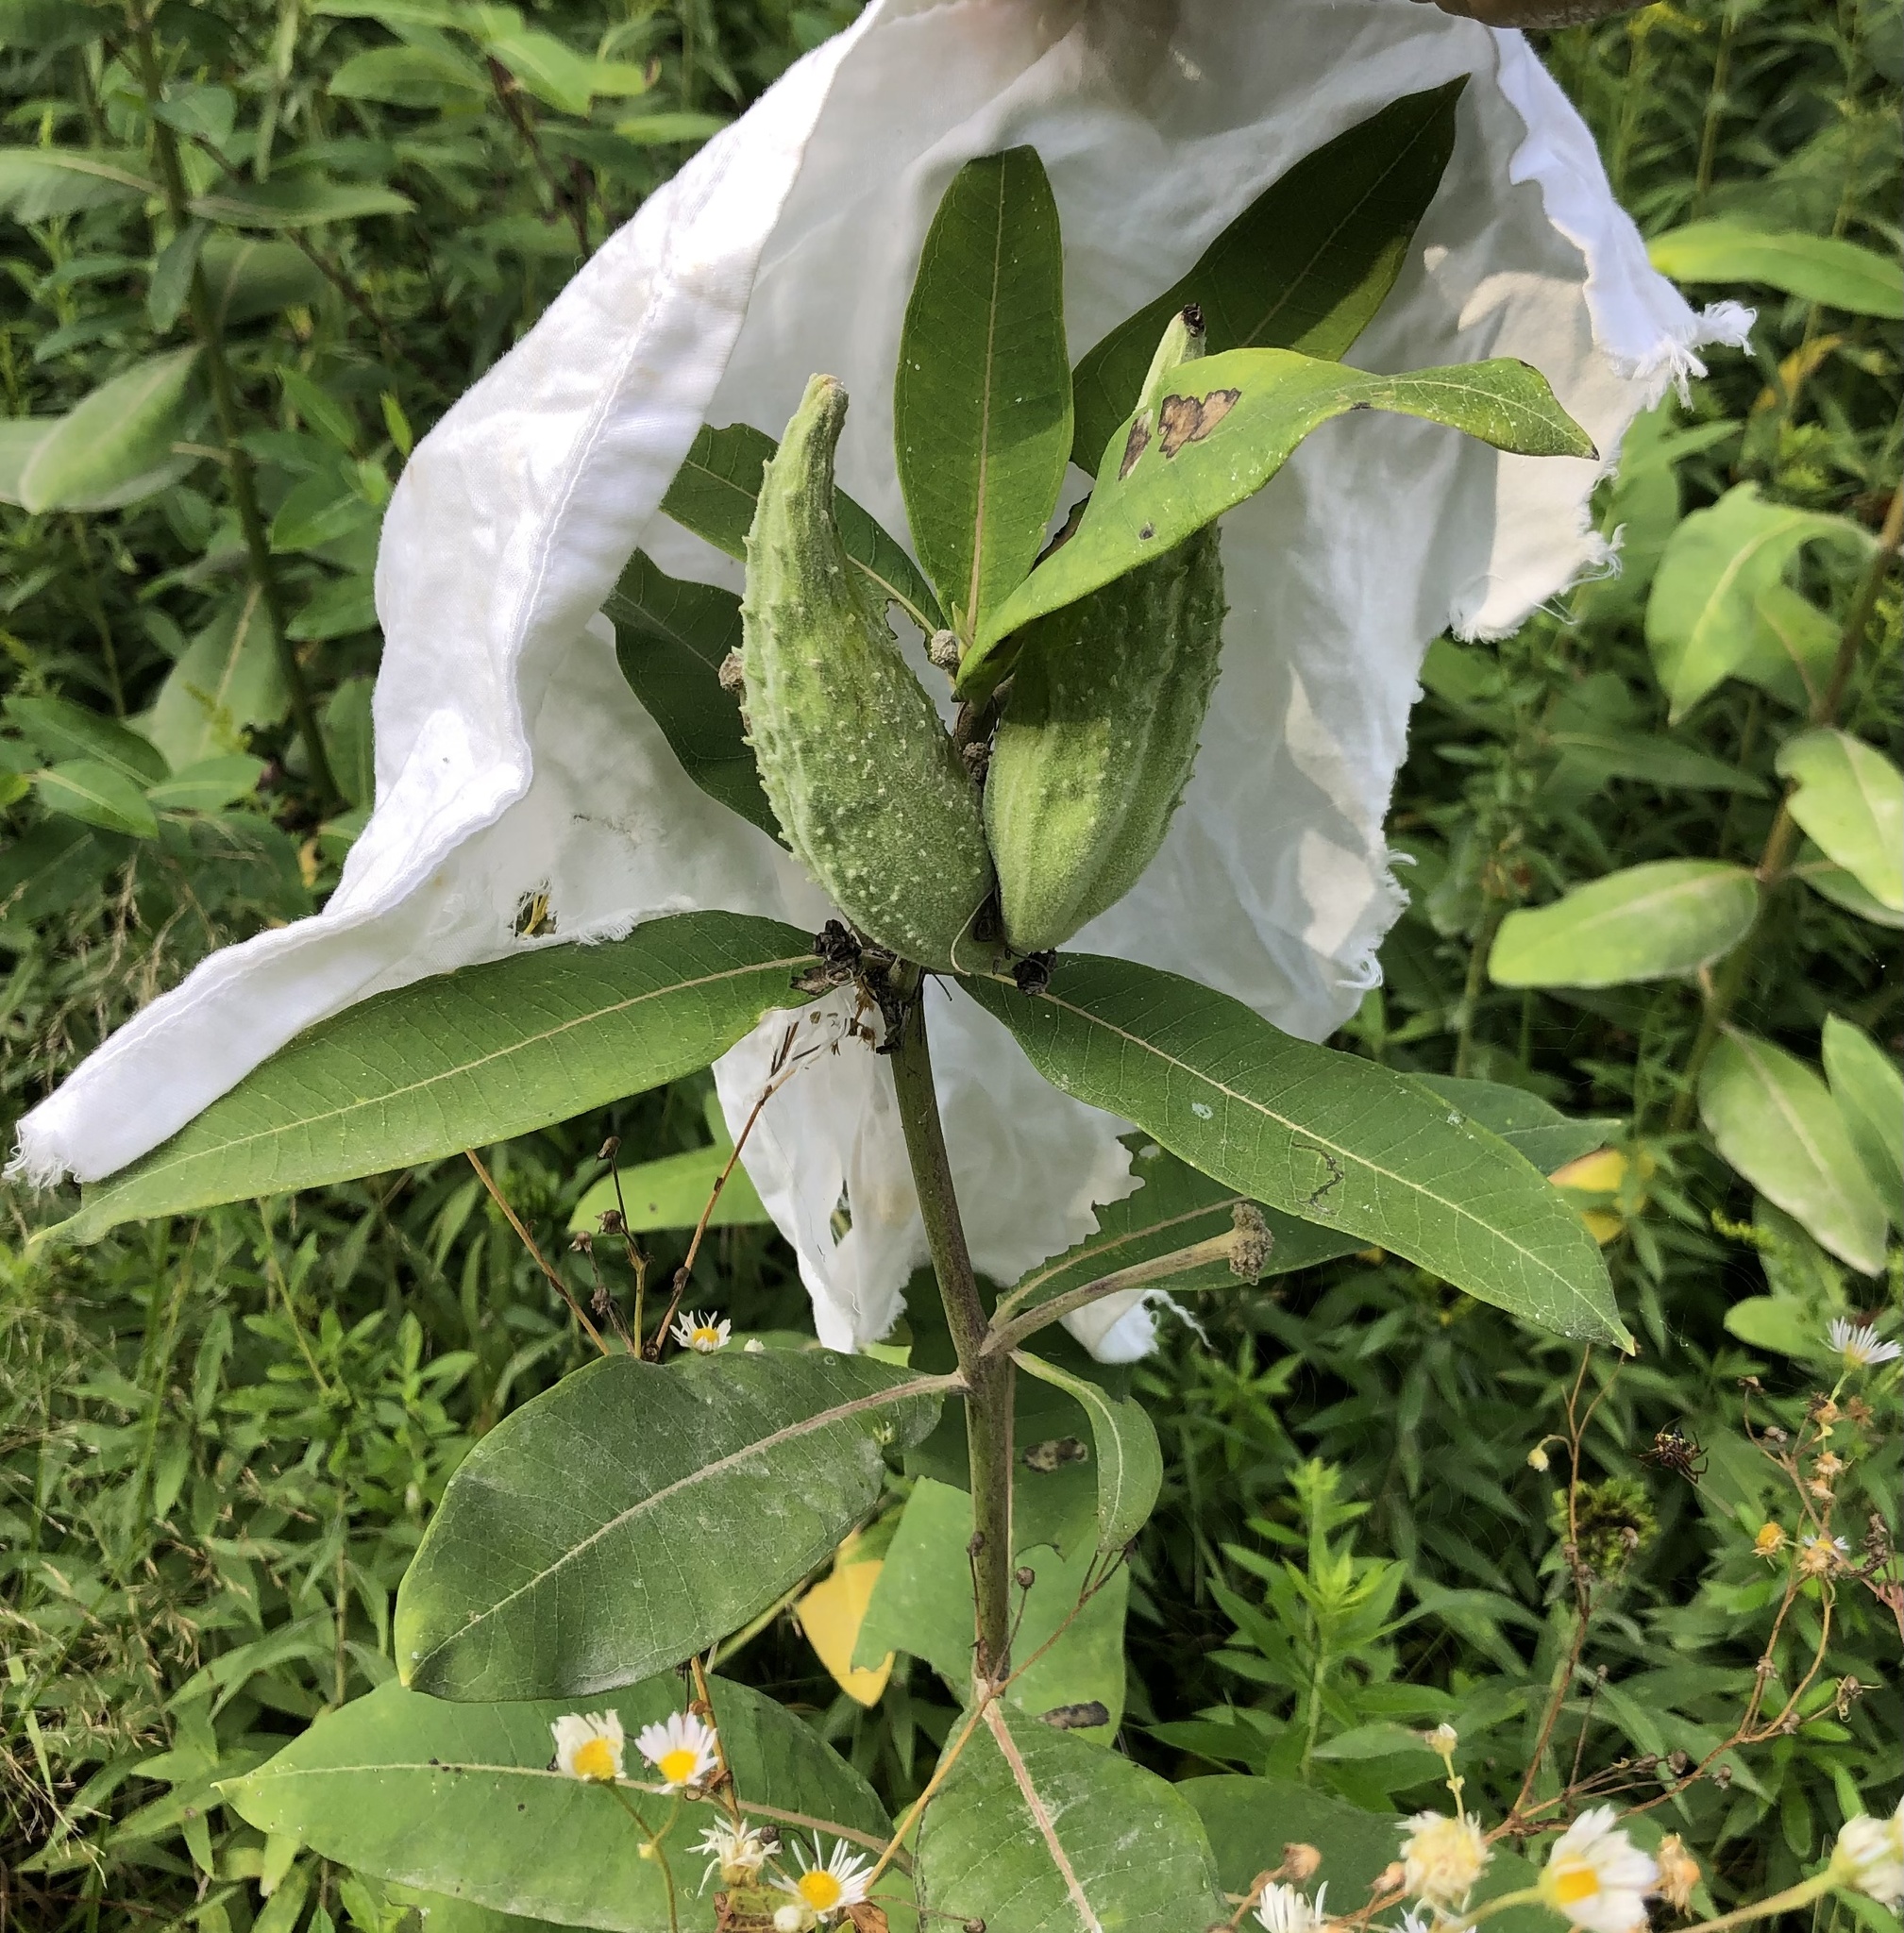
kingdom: Plantae
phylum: Tracheophyta
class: Magnoliopsida
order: Gentianales
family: Apocynaceae
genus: Asclepias
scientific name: Asclepias syriaca
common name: Common milkweed
